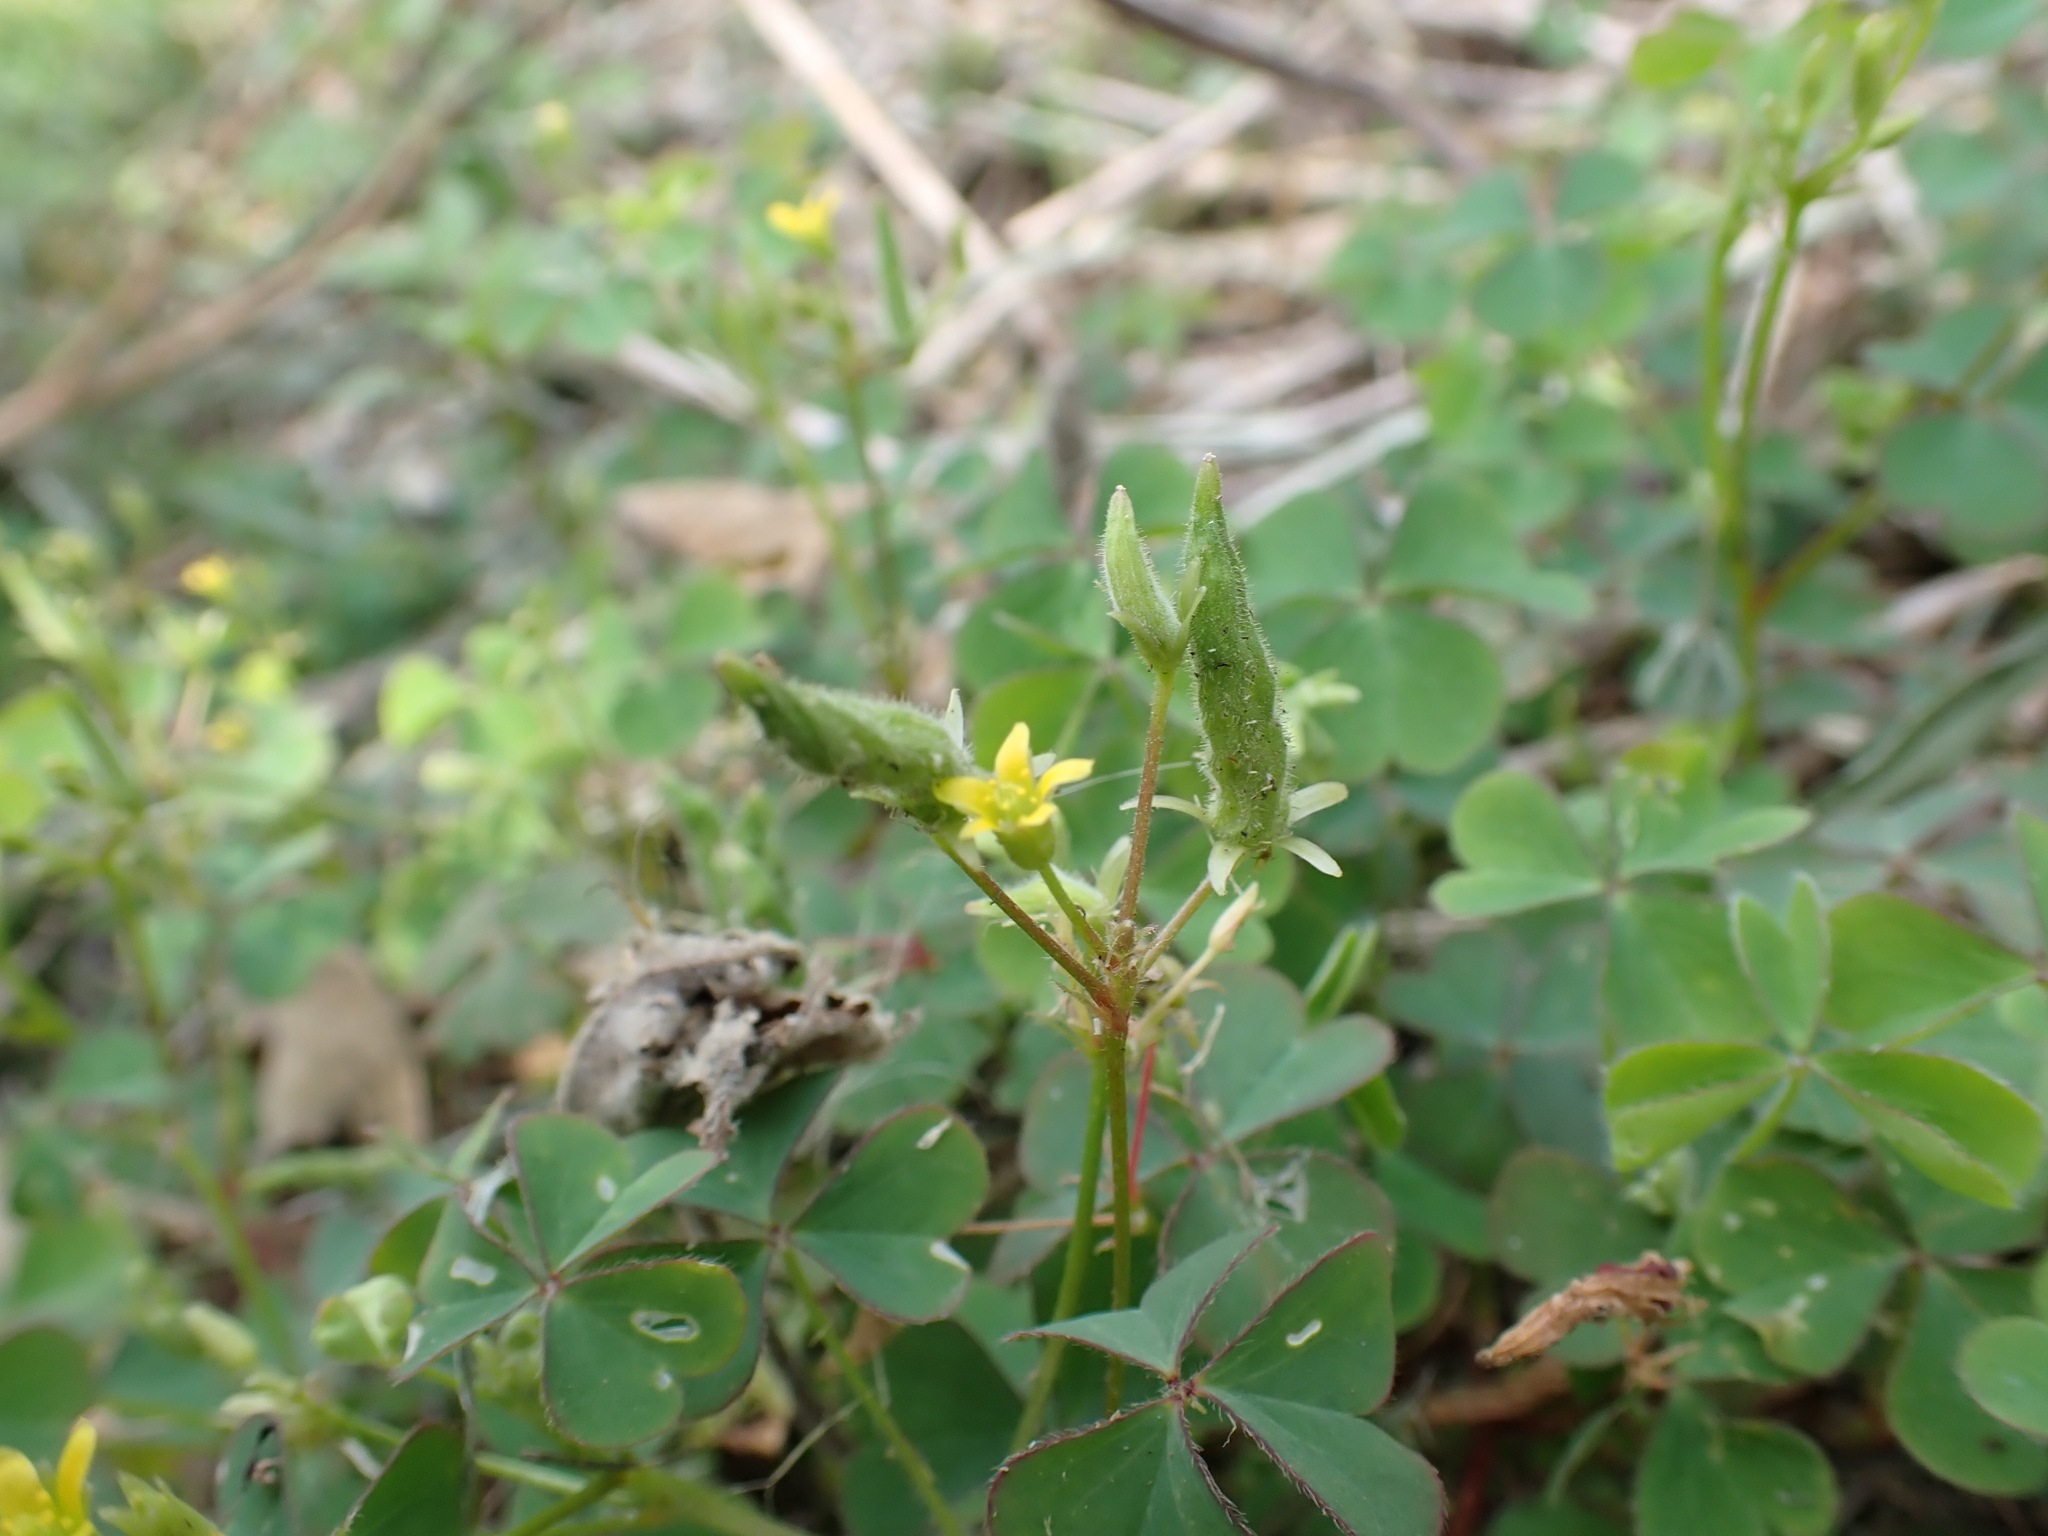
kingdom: Plantae
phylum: Tracheophyta
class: Magnoliopsida
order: Oxalidales
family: Oxalidaceae
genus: Oxalis
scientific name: Oxalis corniculata
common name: Procumbent yellow-sorrel
